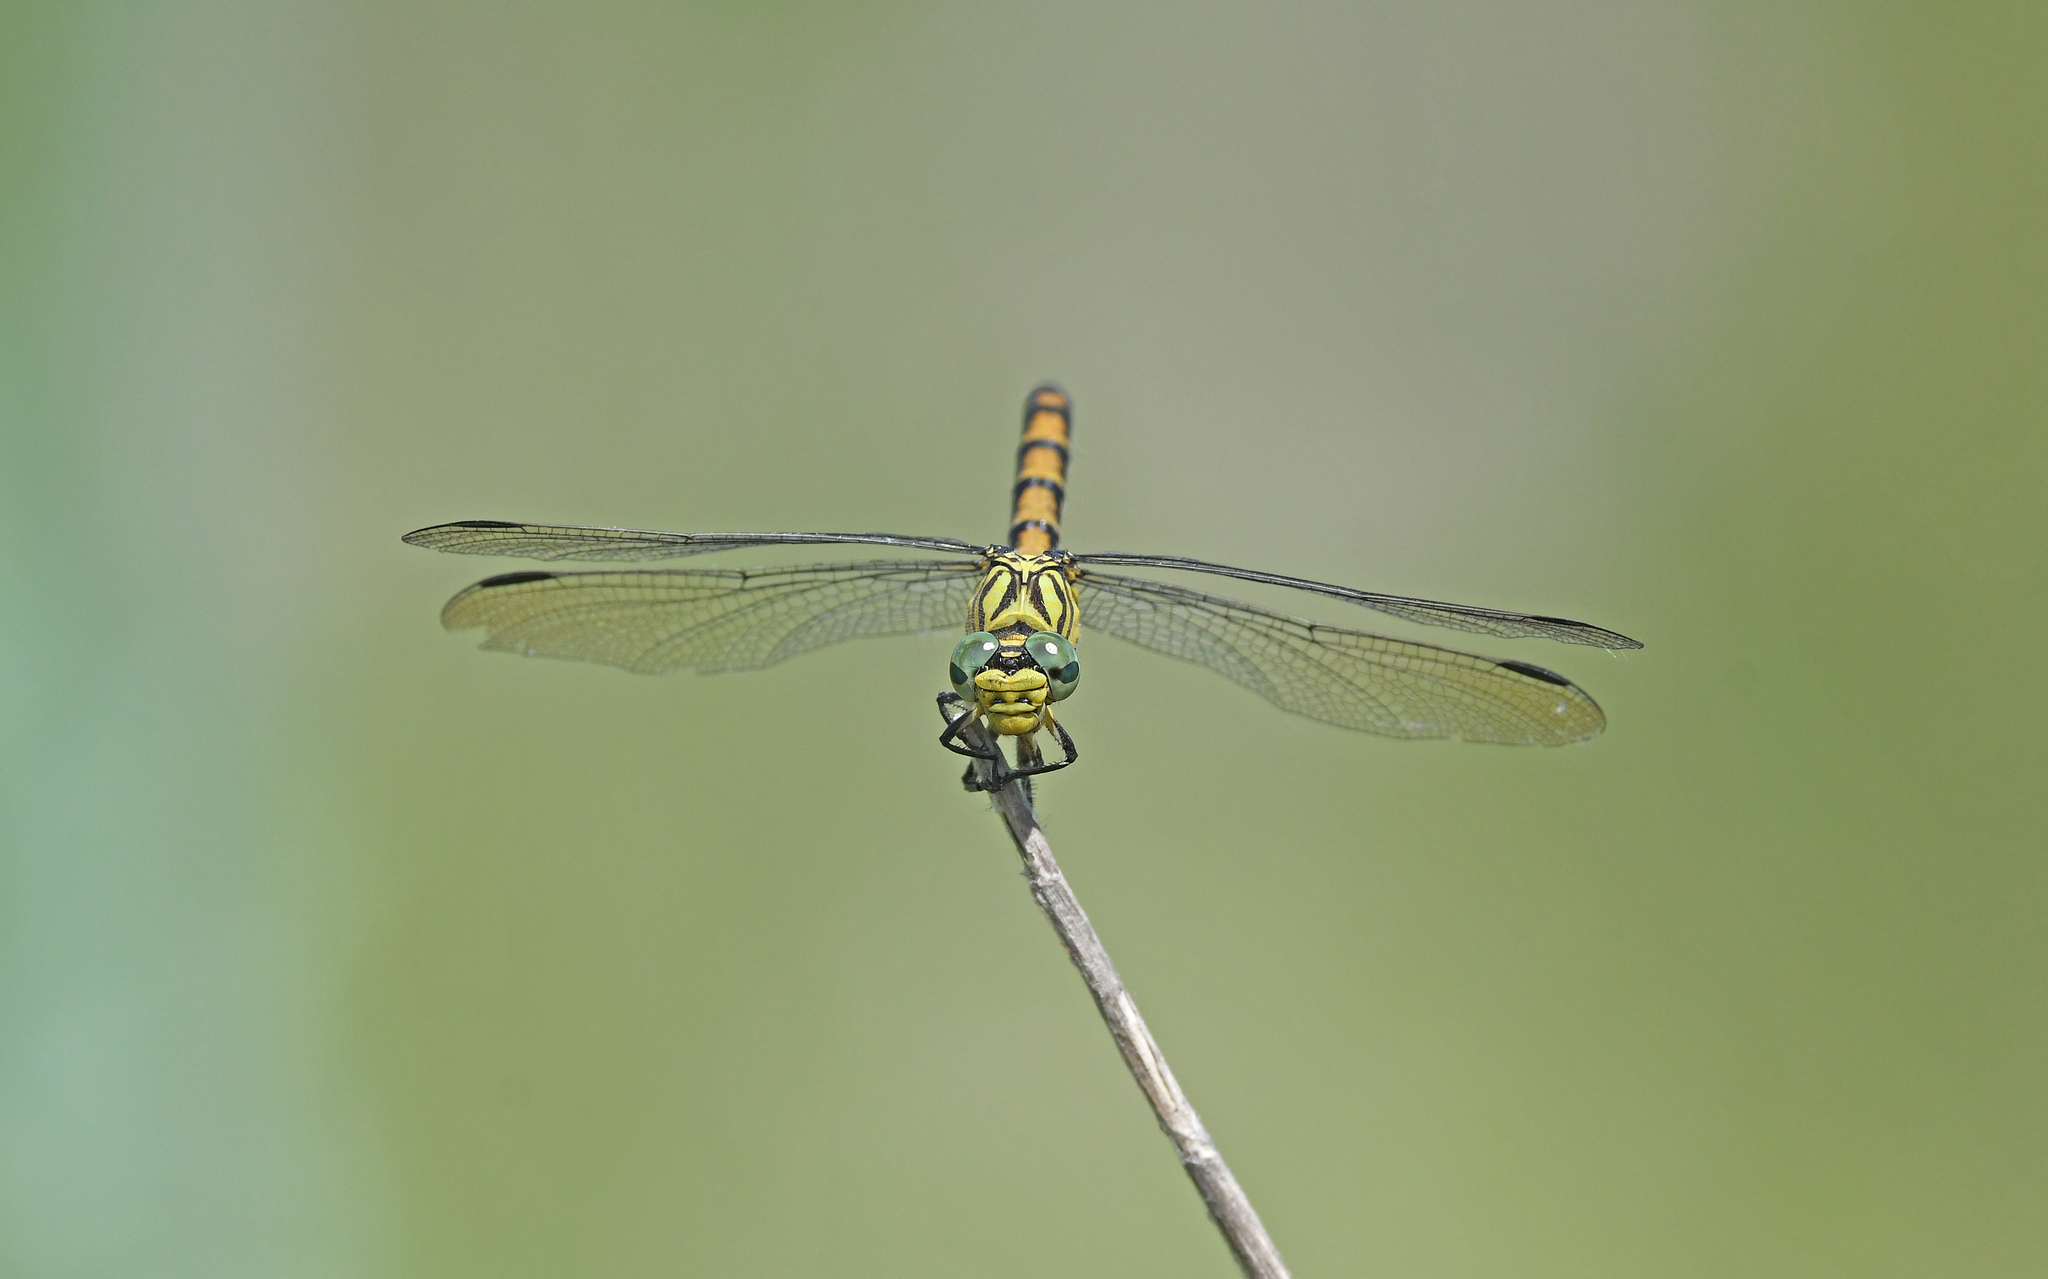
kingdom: Animalia
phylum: Arthropoda
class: Insecta
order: Odonata
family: Gomphidae
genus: Onychogomphus
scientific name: Onychogomphus forcipatus
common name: Small pincertail
